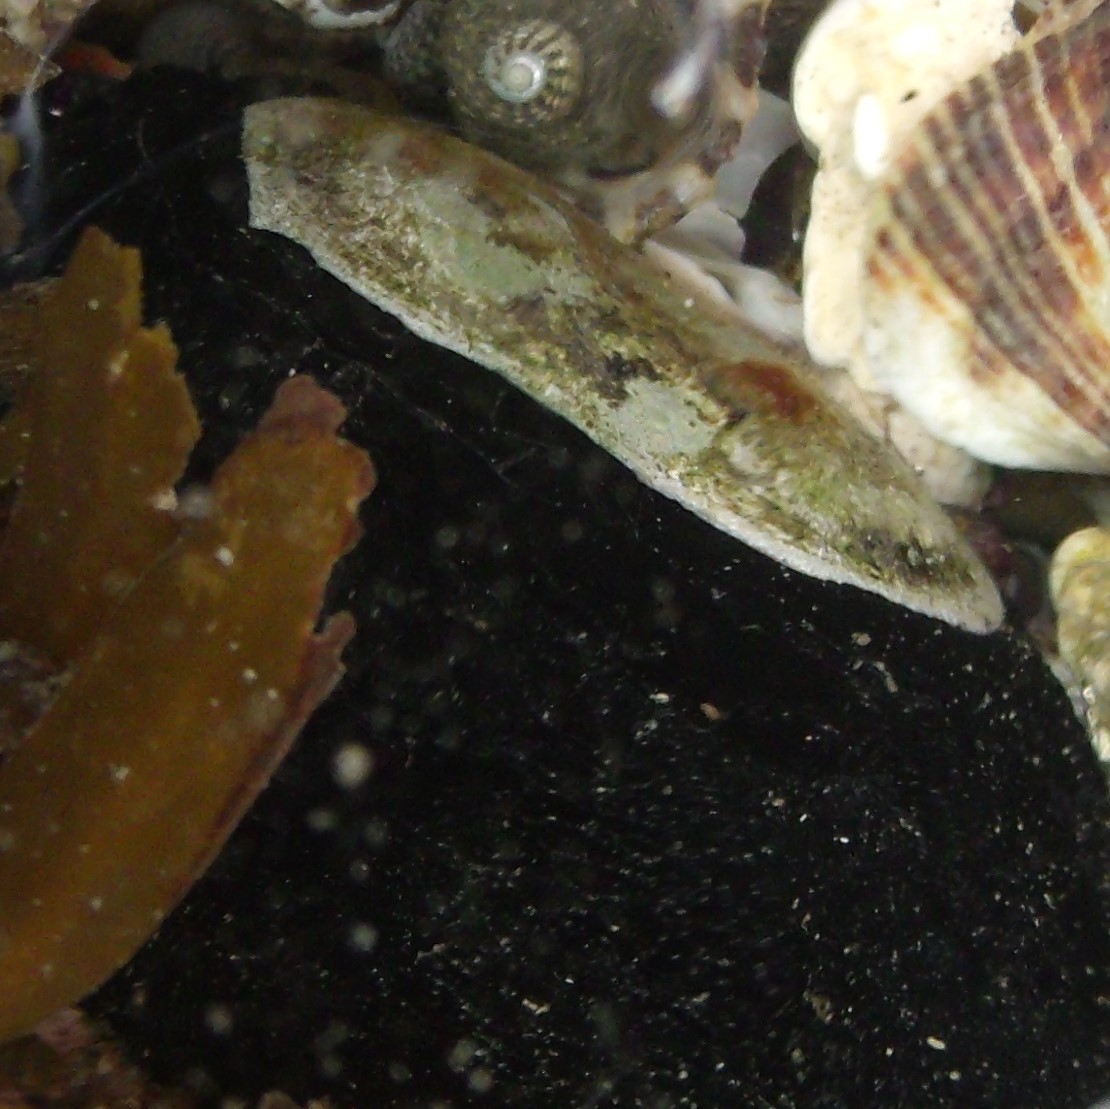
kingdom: Animalia
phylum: Mollusca
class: Gastropoda
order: Lepetellida
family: Fissurellidae
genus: Scutus
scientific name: Scutus breviculus
